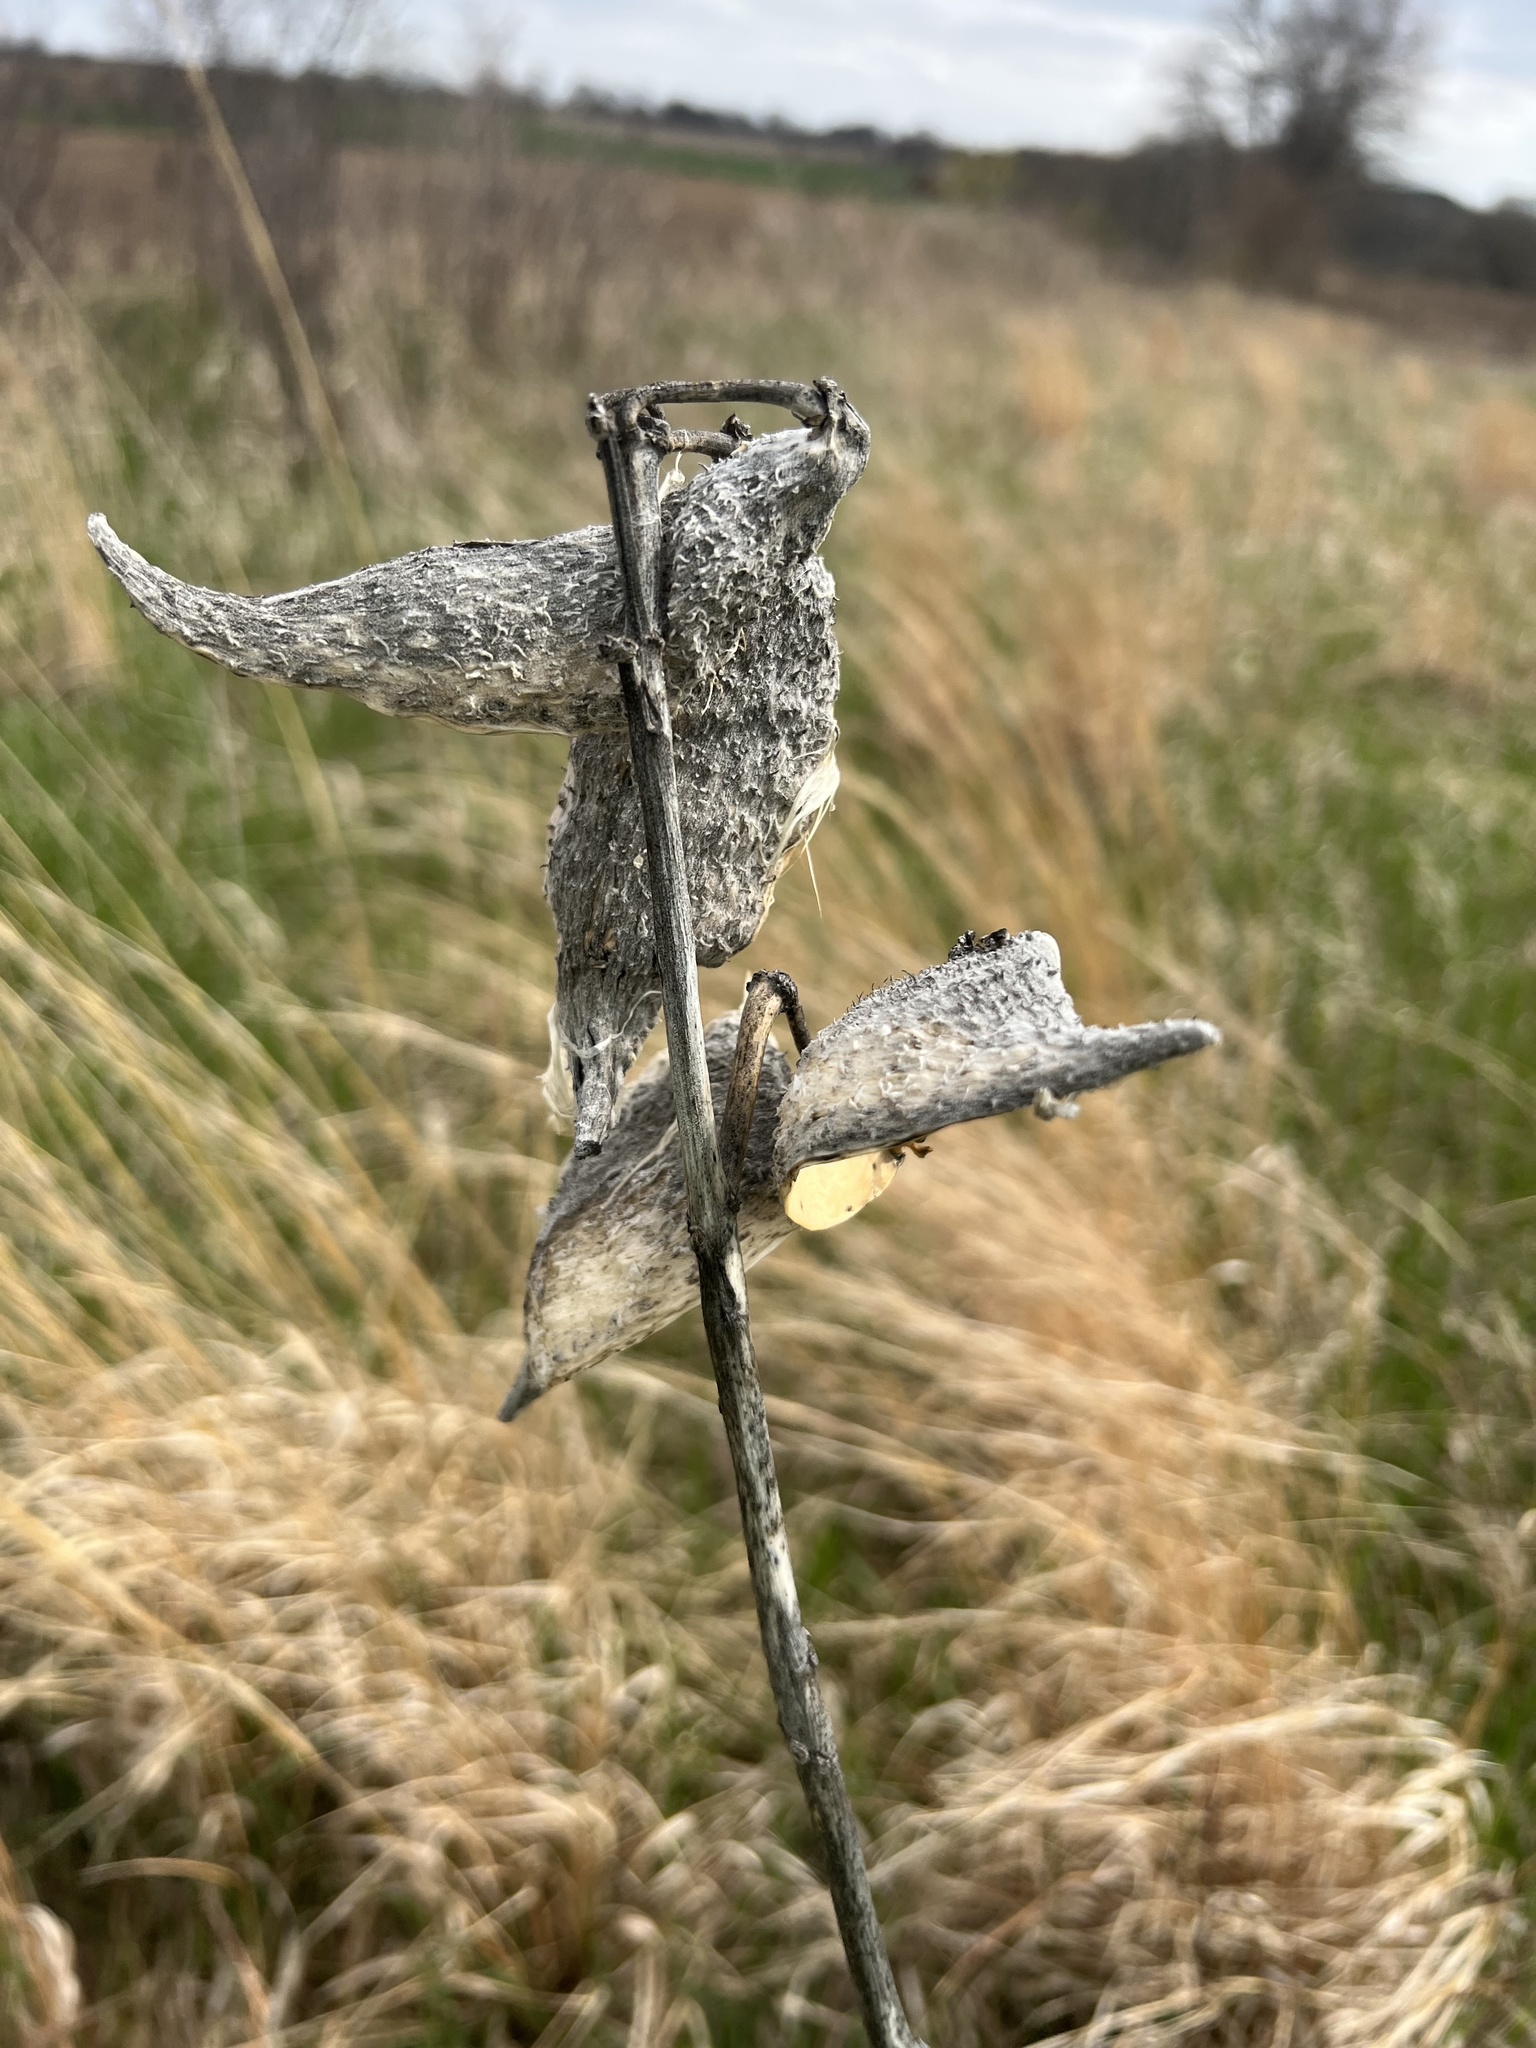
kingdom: Plantae
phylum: Tracheophyta
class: Magnoliopsida
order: Gentianales
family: Apocynaceae
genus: Asclepias
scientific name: Asclepias syriaca
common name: Common milkweed
